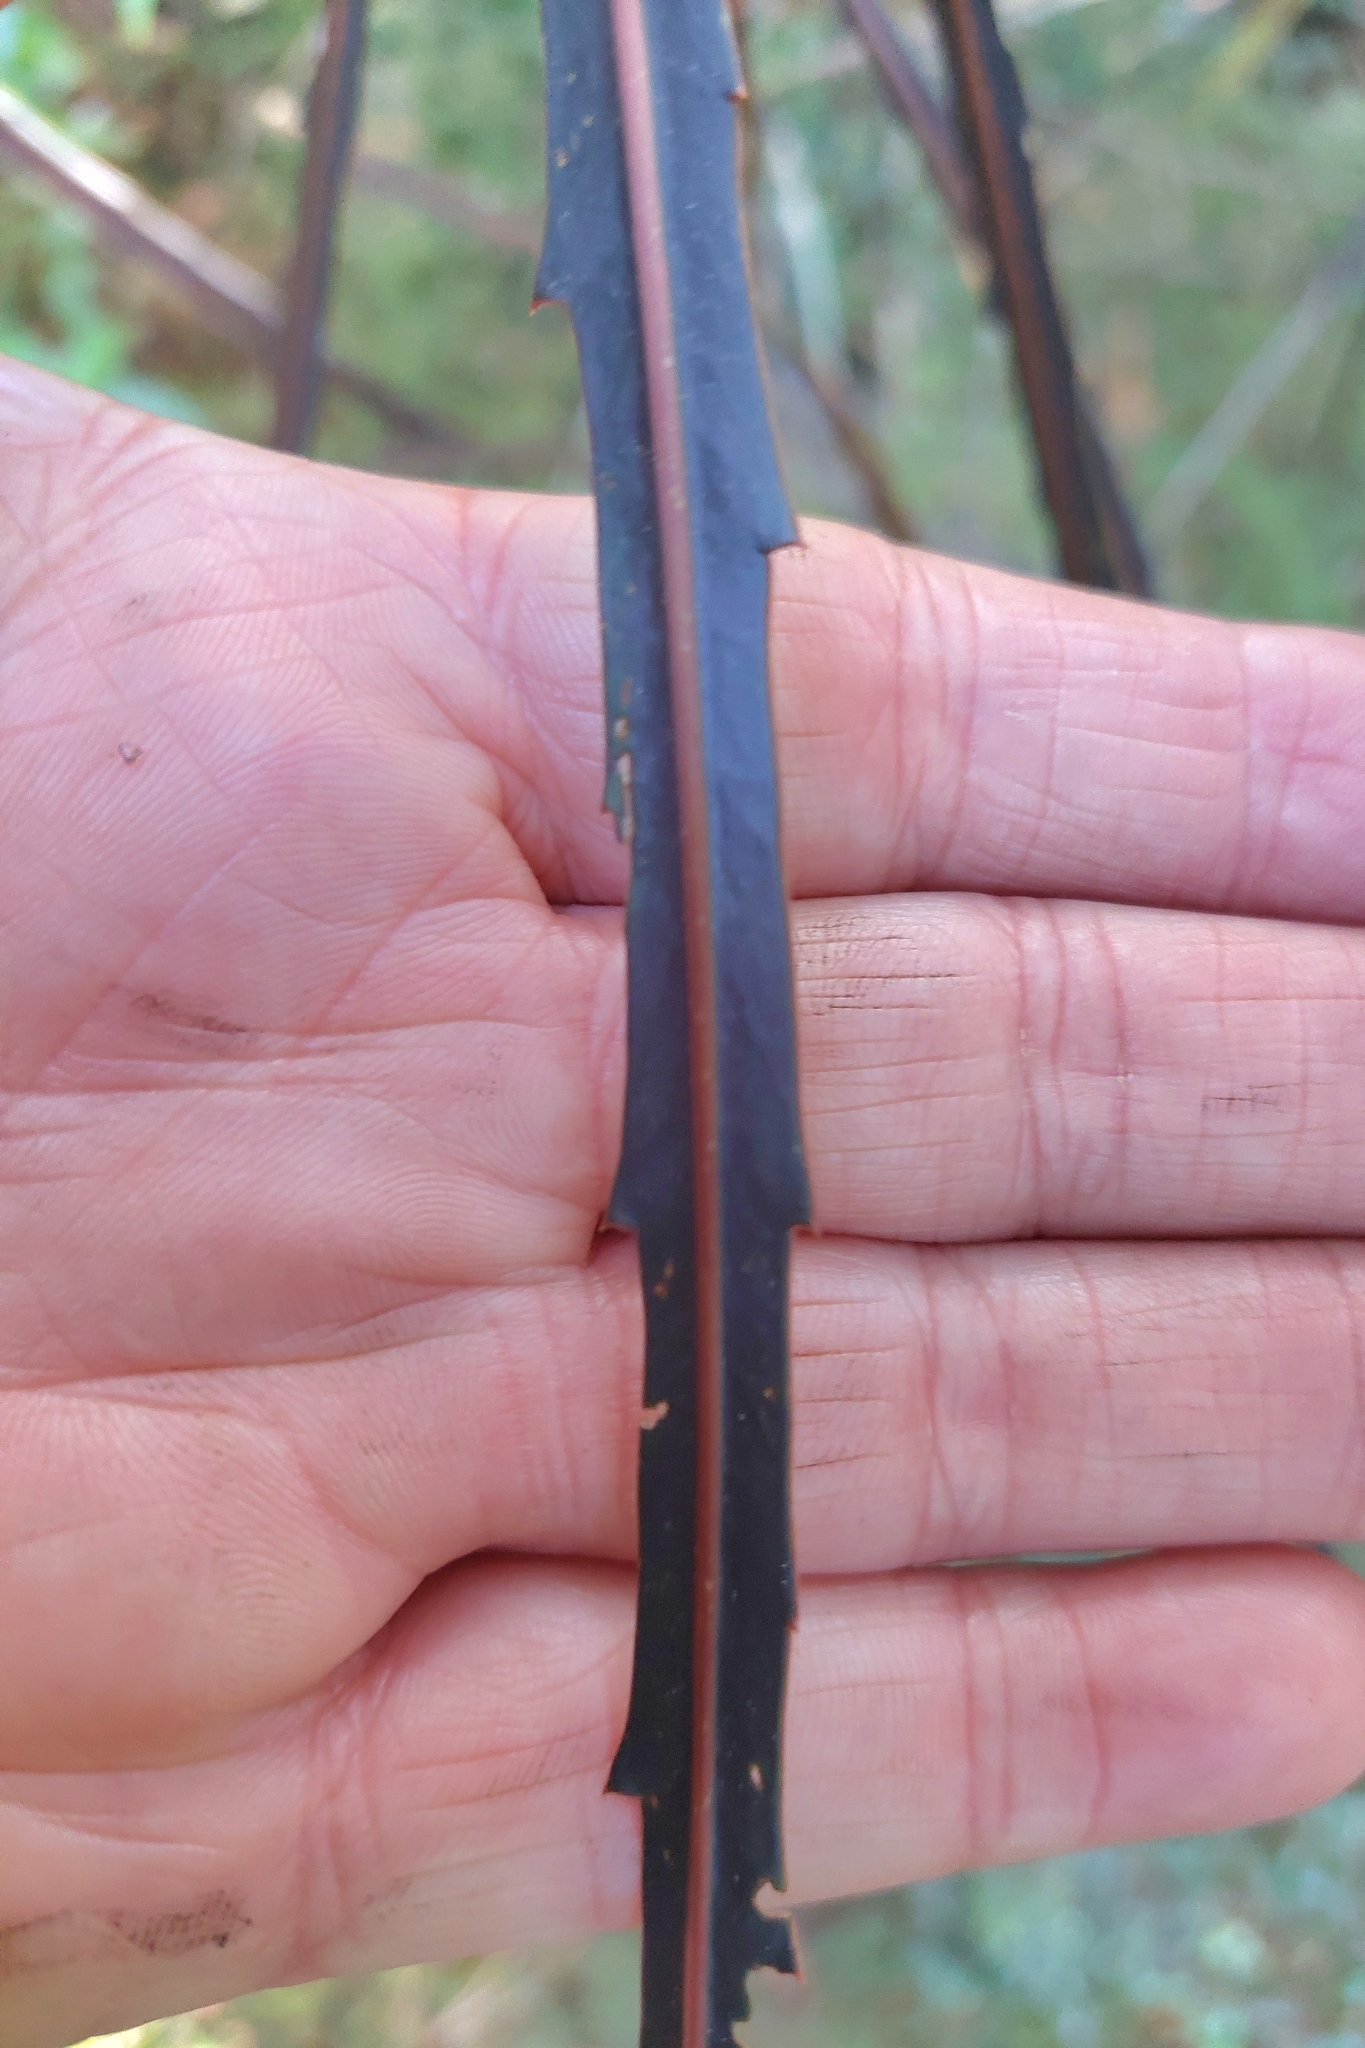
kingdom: Plantae
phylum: Tracheophyta
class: Magnoliopsida
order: Apiales
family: Araliaceae
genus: Pseudopanax
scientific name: Pseudopanax crassifolius
